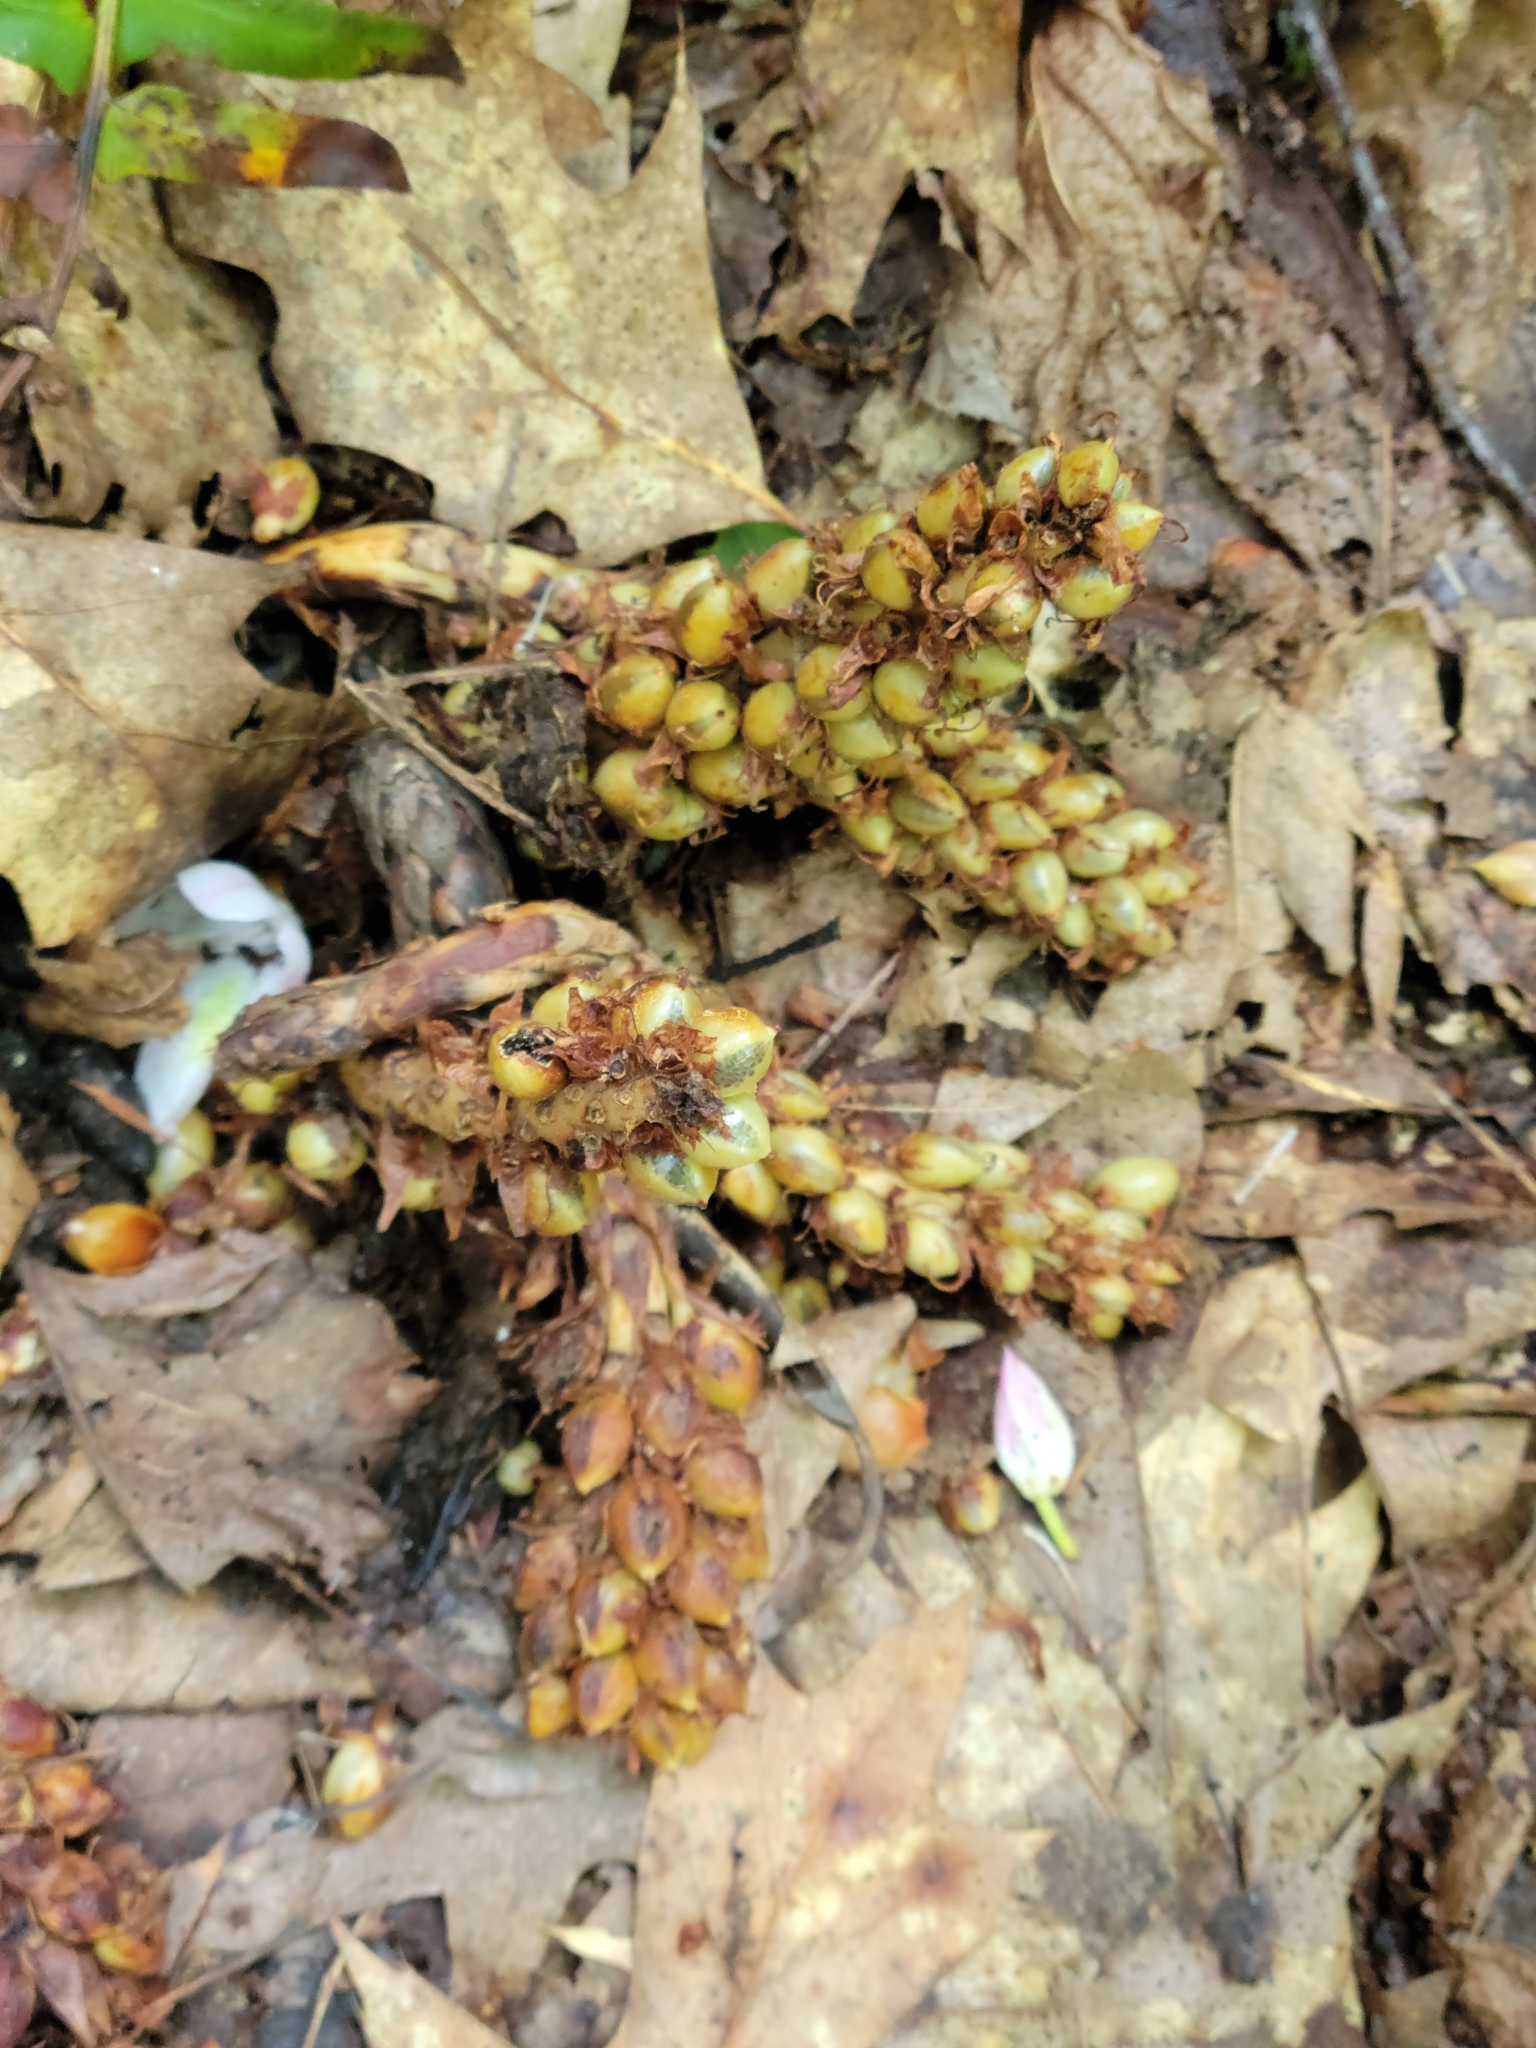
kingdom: Plantae
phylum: Tracheophyta
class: Magnoliopsida
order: Lamiales
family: Orobanchaceae
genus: Conopholis
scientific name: Conopholis americana
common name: American cancer-root
